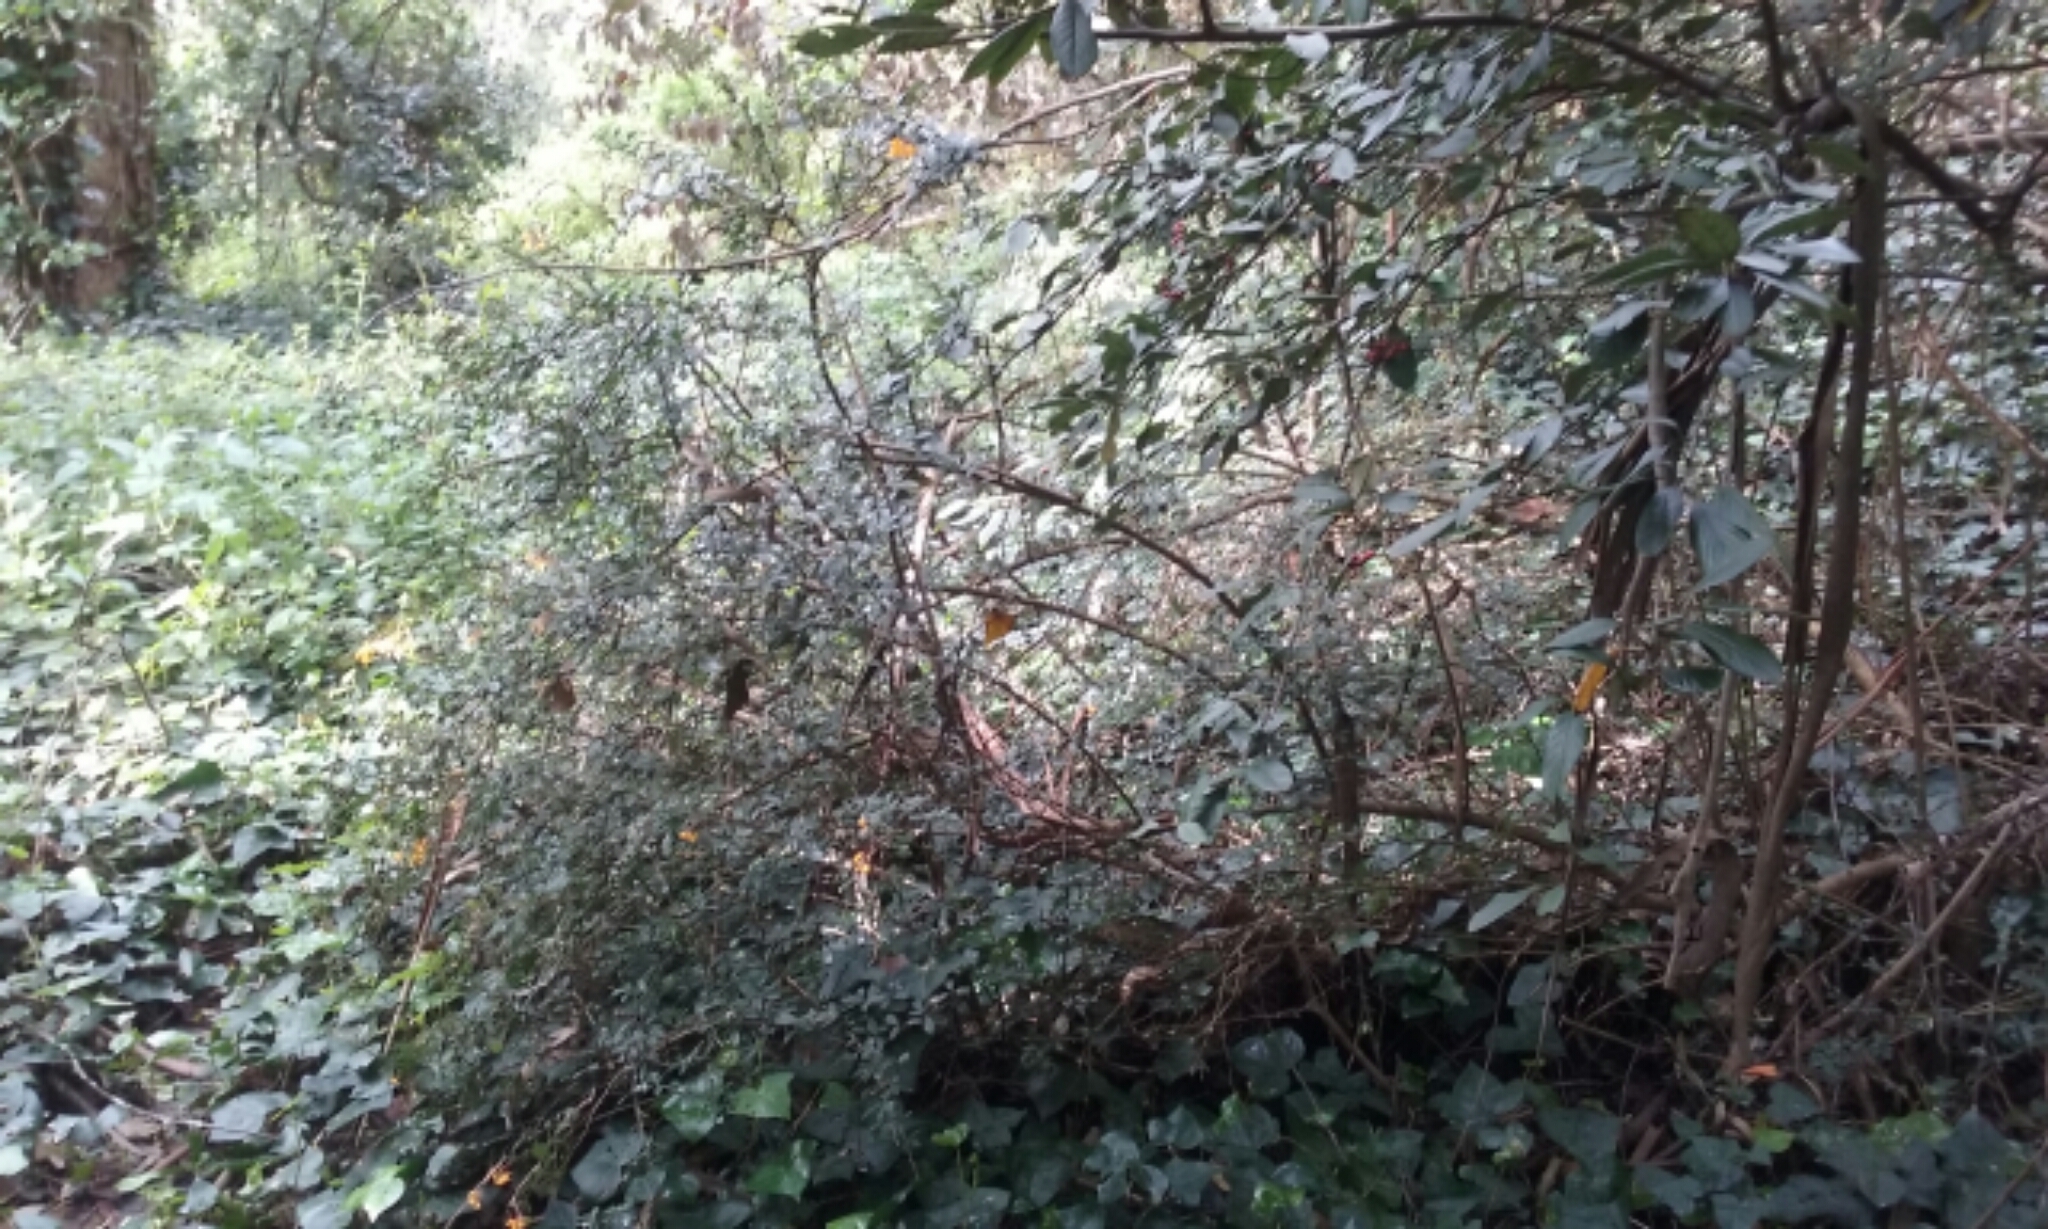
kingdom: Plantae
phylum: Tracheophyta
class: Magnoliopsida
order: Ranunculales
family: Berberidaceae
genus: Berberis
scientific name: Berberis darwinii
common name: Darwin's barberry
